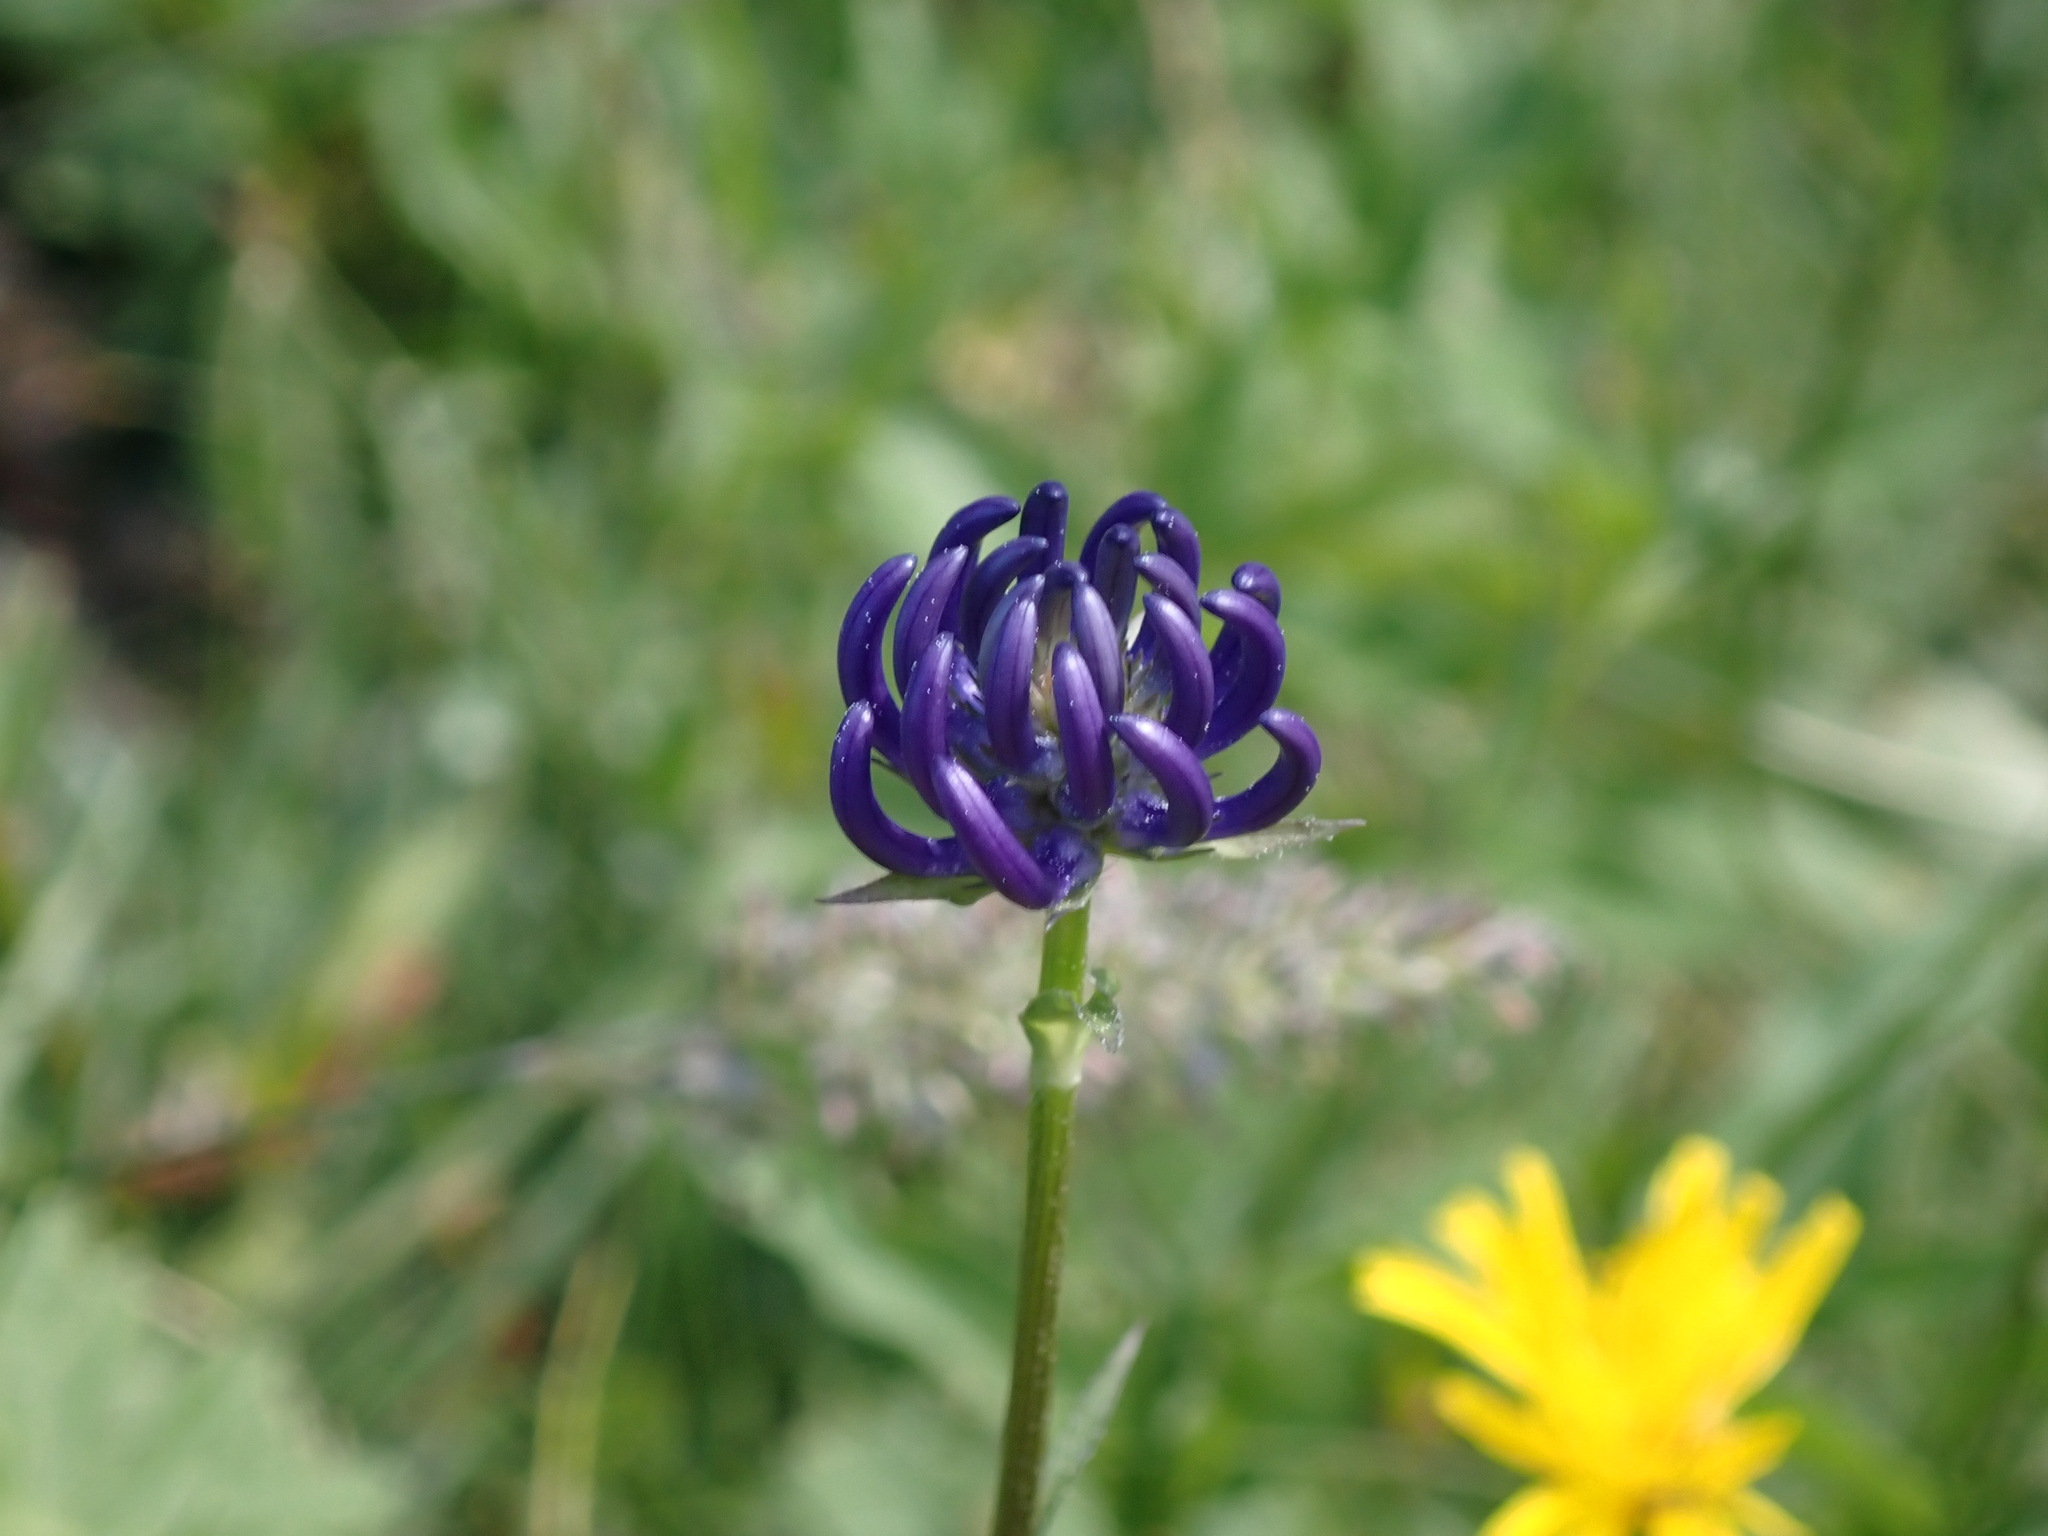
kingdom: Plantae
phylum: Tracheophyta
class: Magnoliopsida
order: Asterales
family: Campanulaceae
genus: Phyteuma
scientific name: Phyteuma orbiculare
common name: Round-headed rampion
